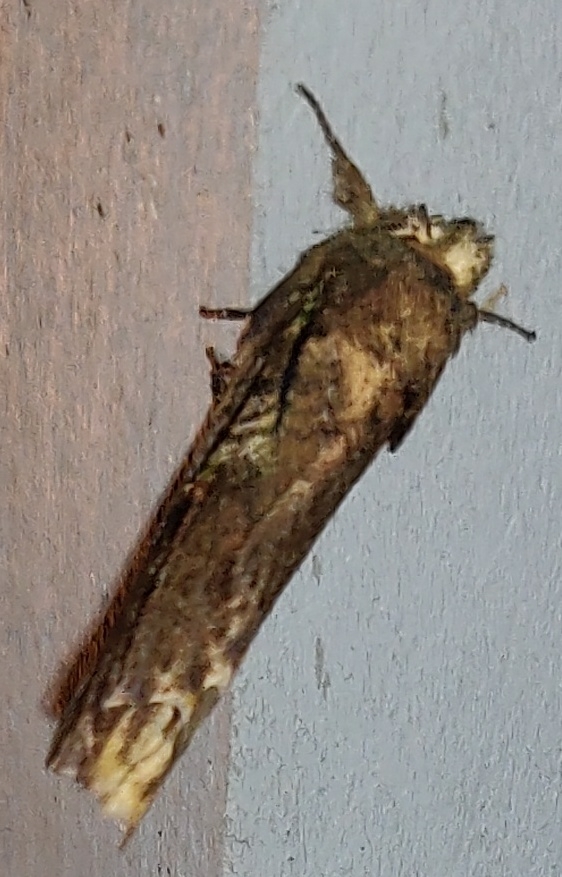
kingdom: Animalia
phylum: Arthropoda
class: Insecta
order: Lepidoptera
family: Notodontidae
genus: Schizura
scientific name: Schizura ipomaeae
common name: Morning-glory prominent
